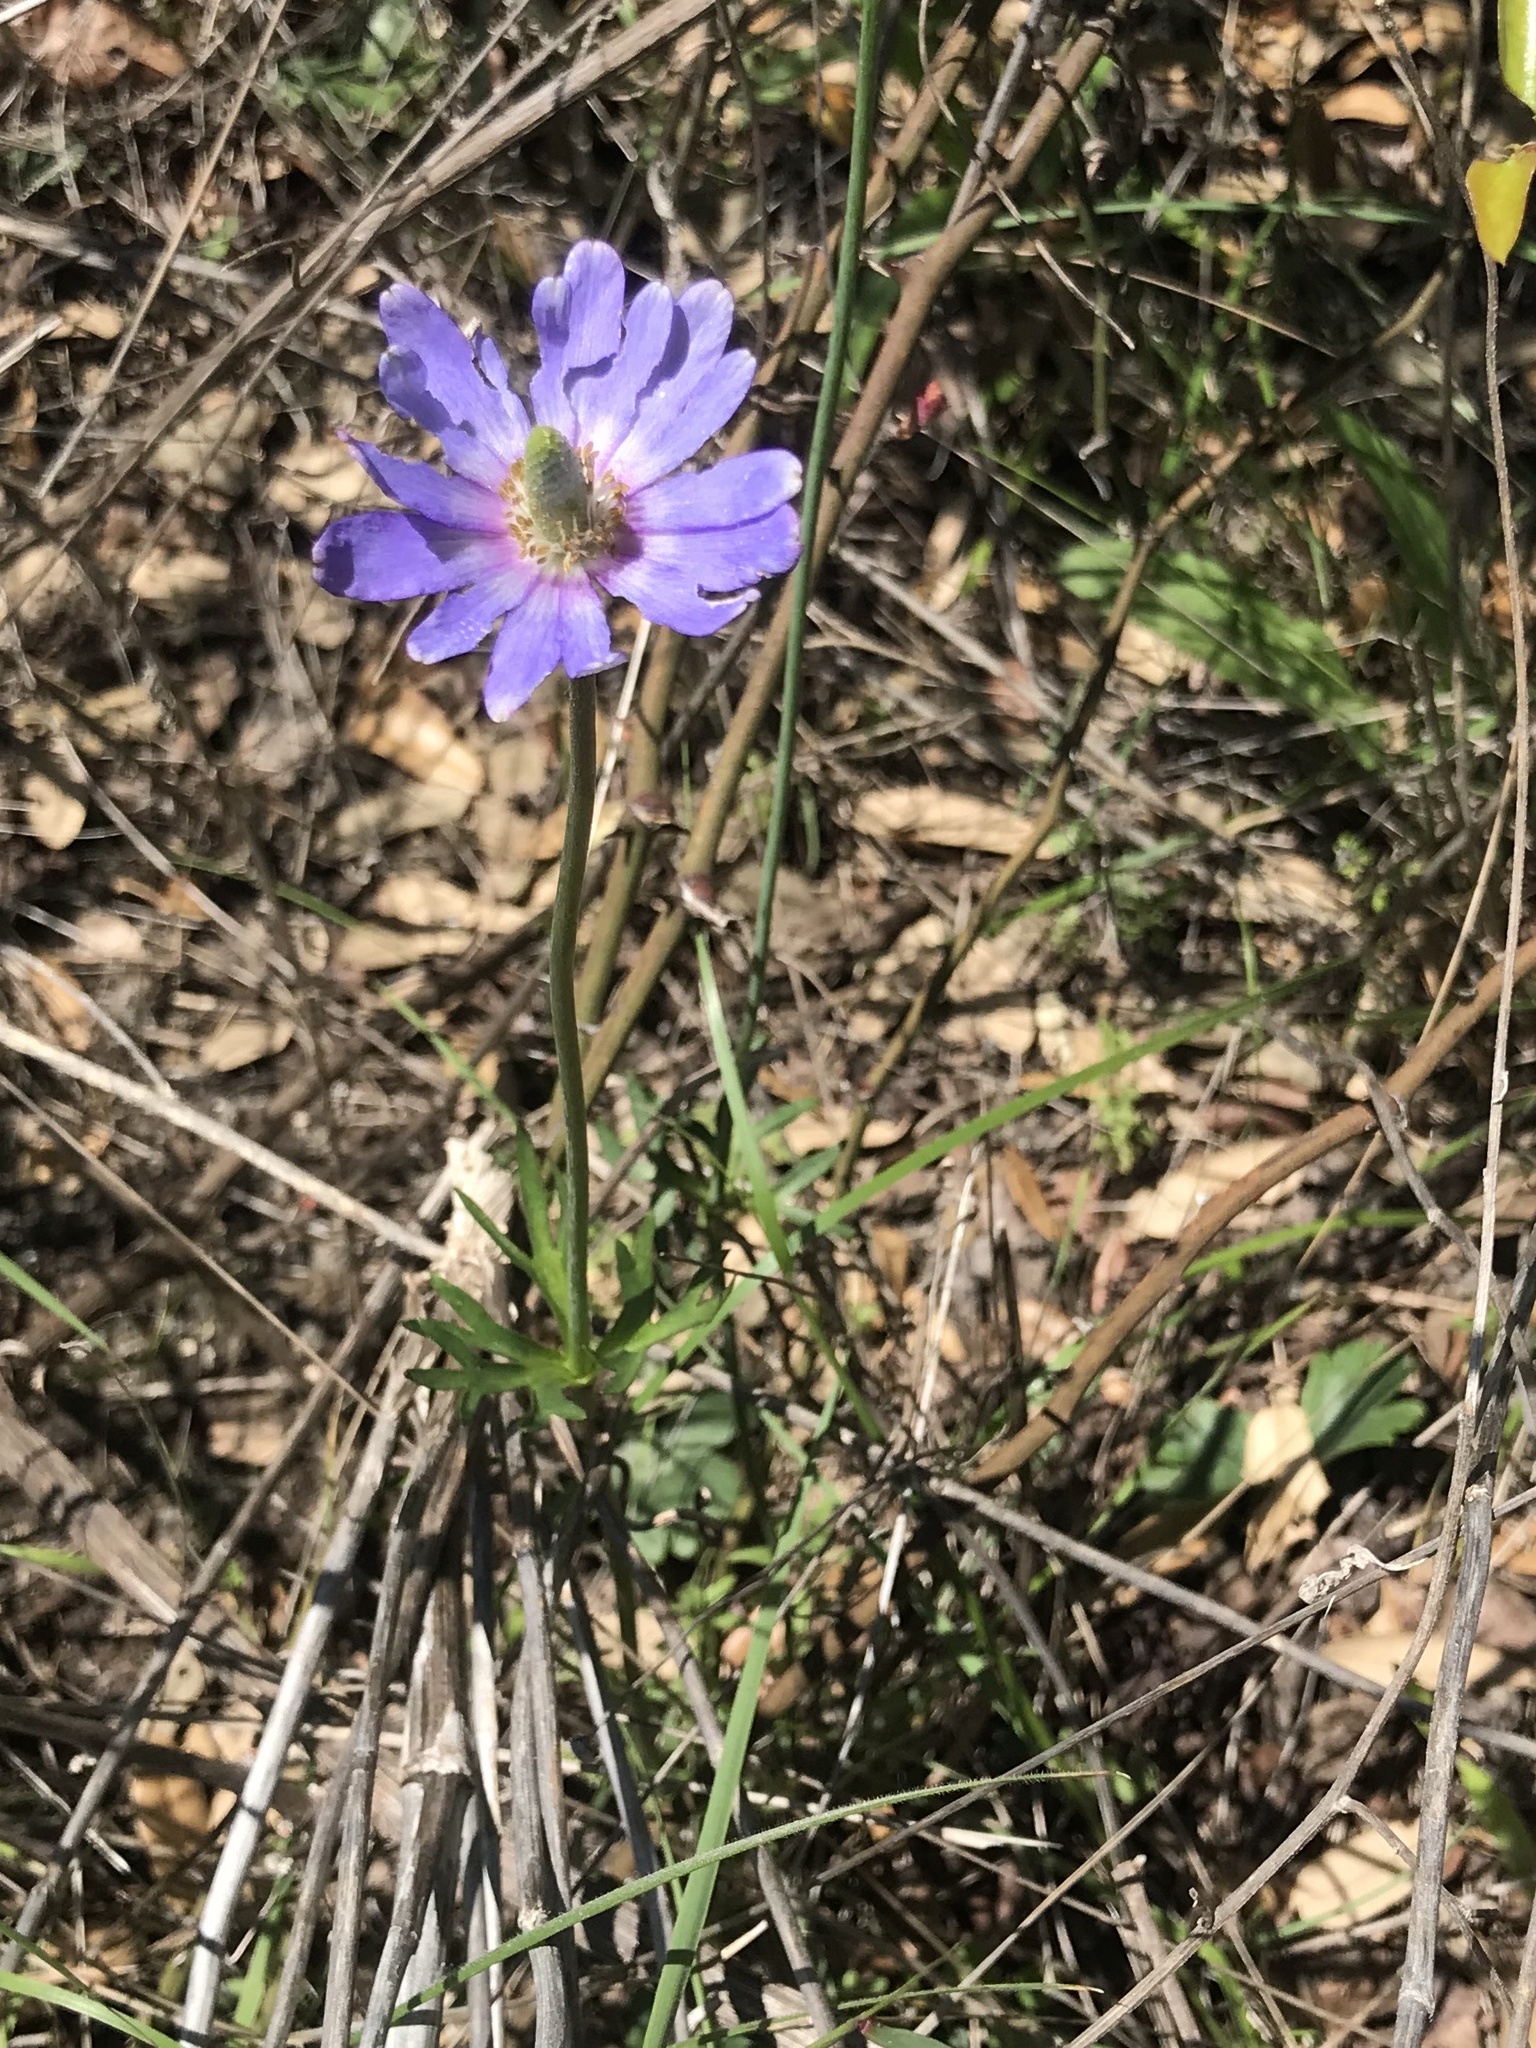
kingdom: Plantae
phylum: Tracheophyta
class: Magnoliopsida
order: Ranunculales
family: Ranunculaceae
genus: Anemone
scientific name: Anemone berlandieri
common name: Ten-petal anemone
